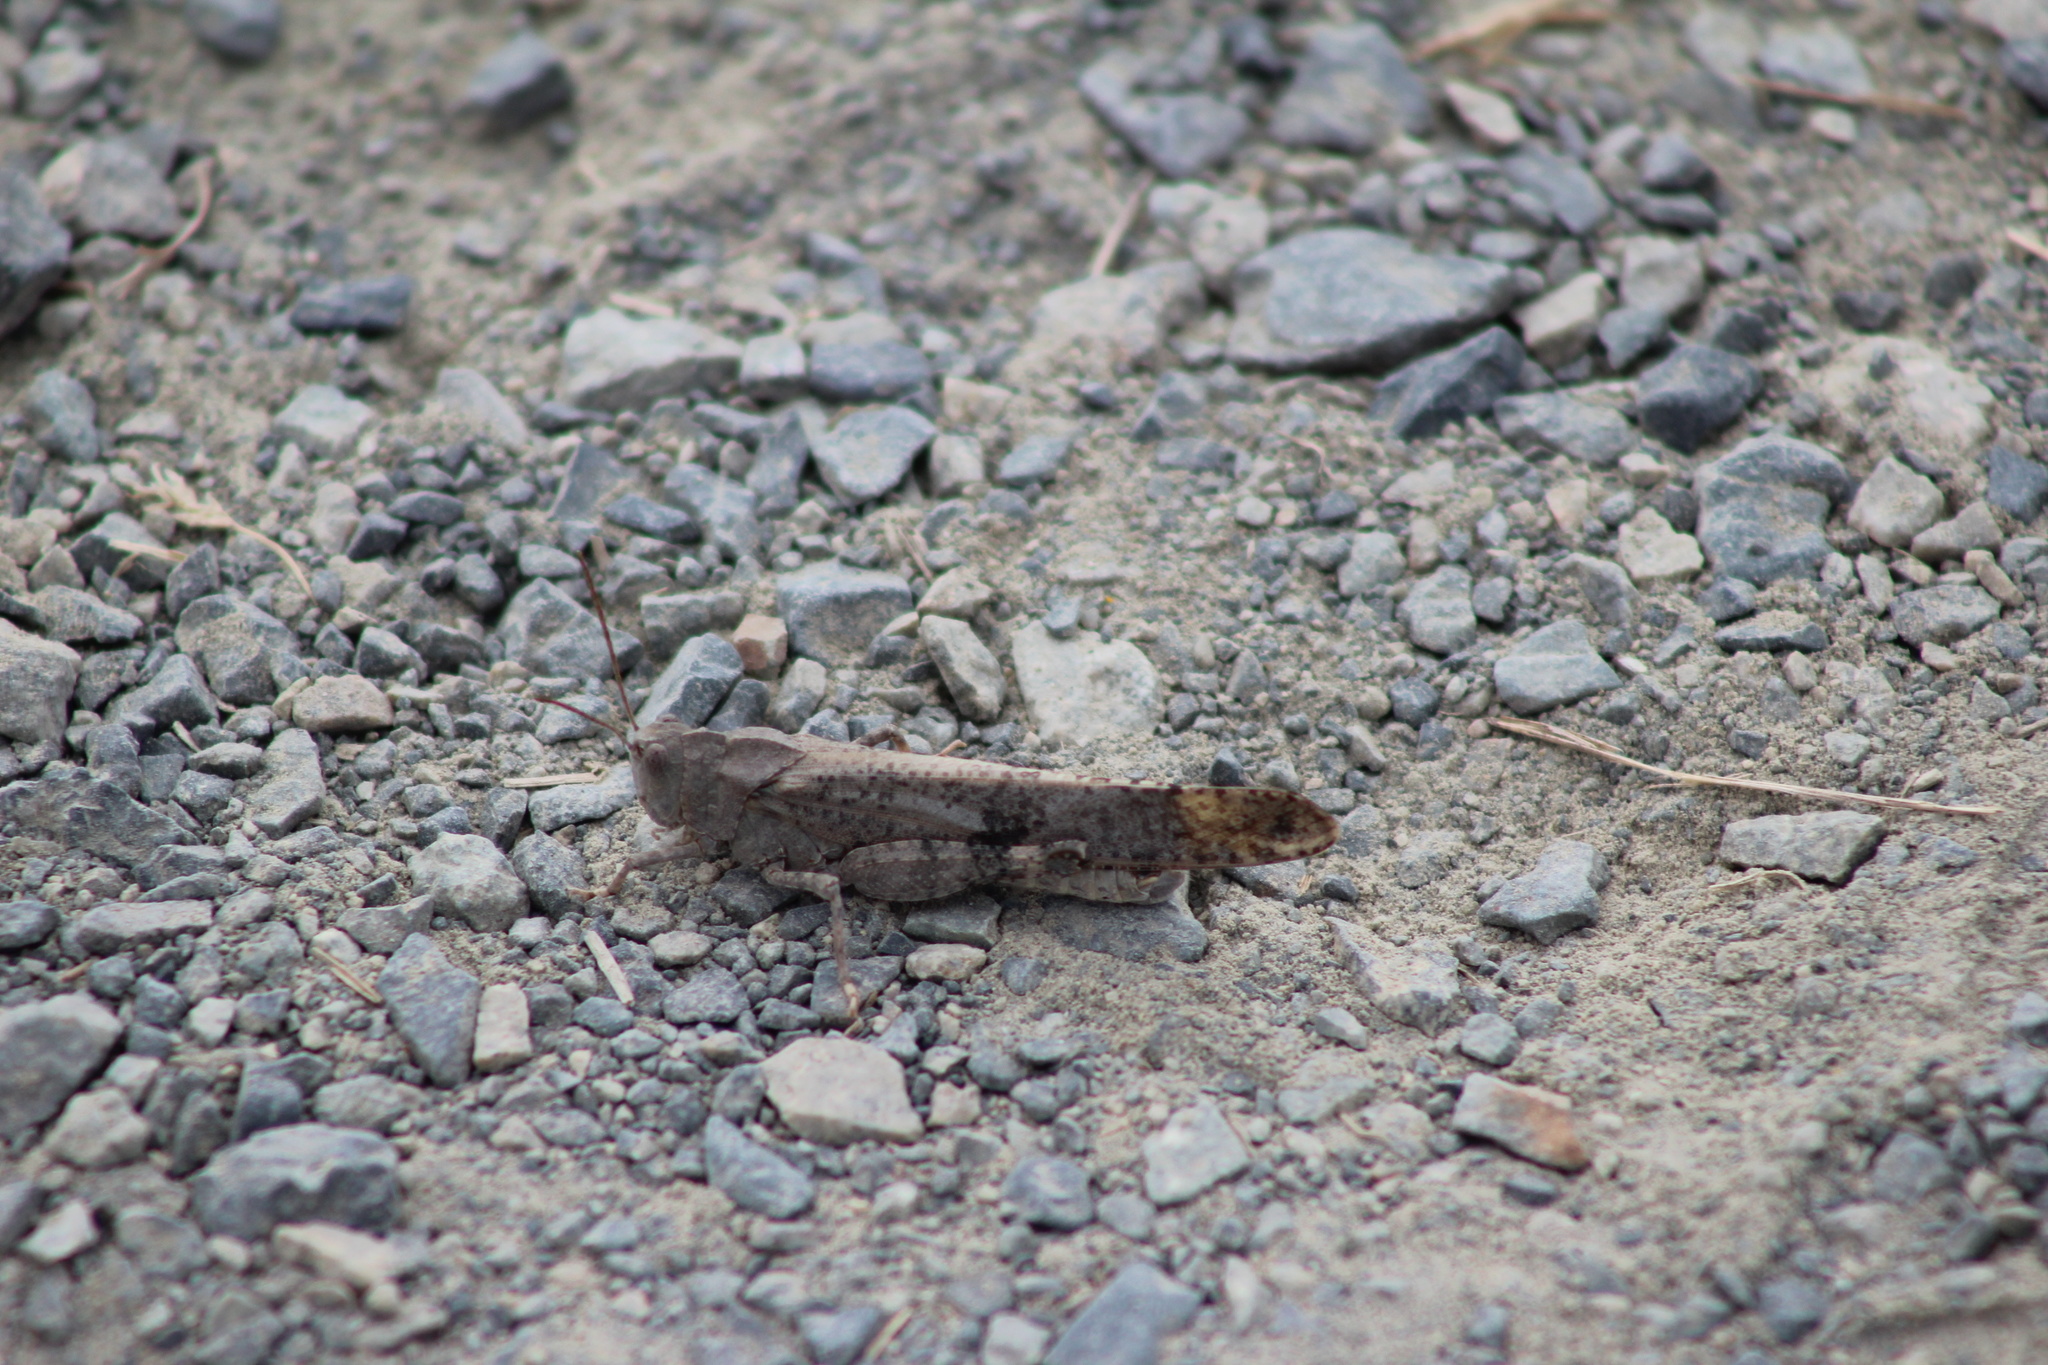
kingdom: Animalia
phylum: Arthropoda
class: Insecta
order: Orthoptera
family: Acrididae
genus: Dissosteira
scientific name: Dissosteira carolina
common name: Carolina grasshopper
